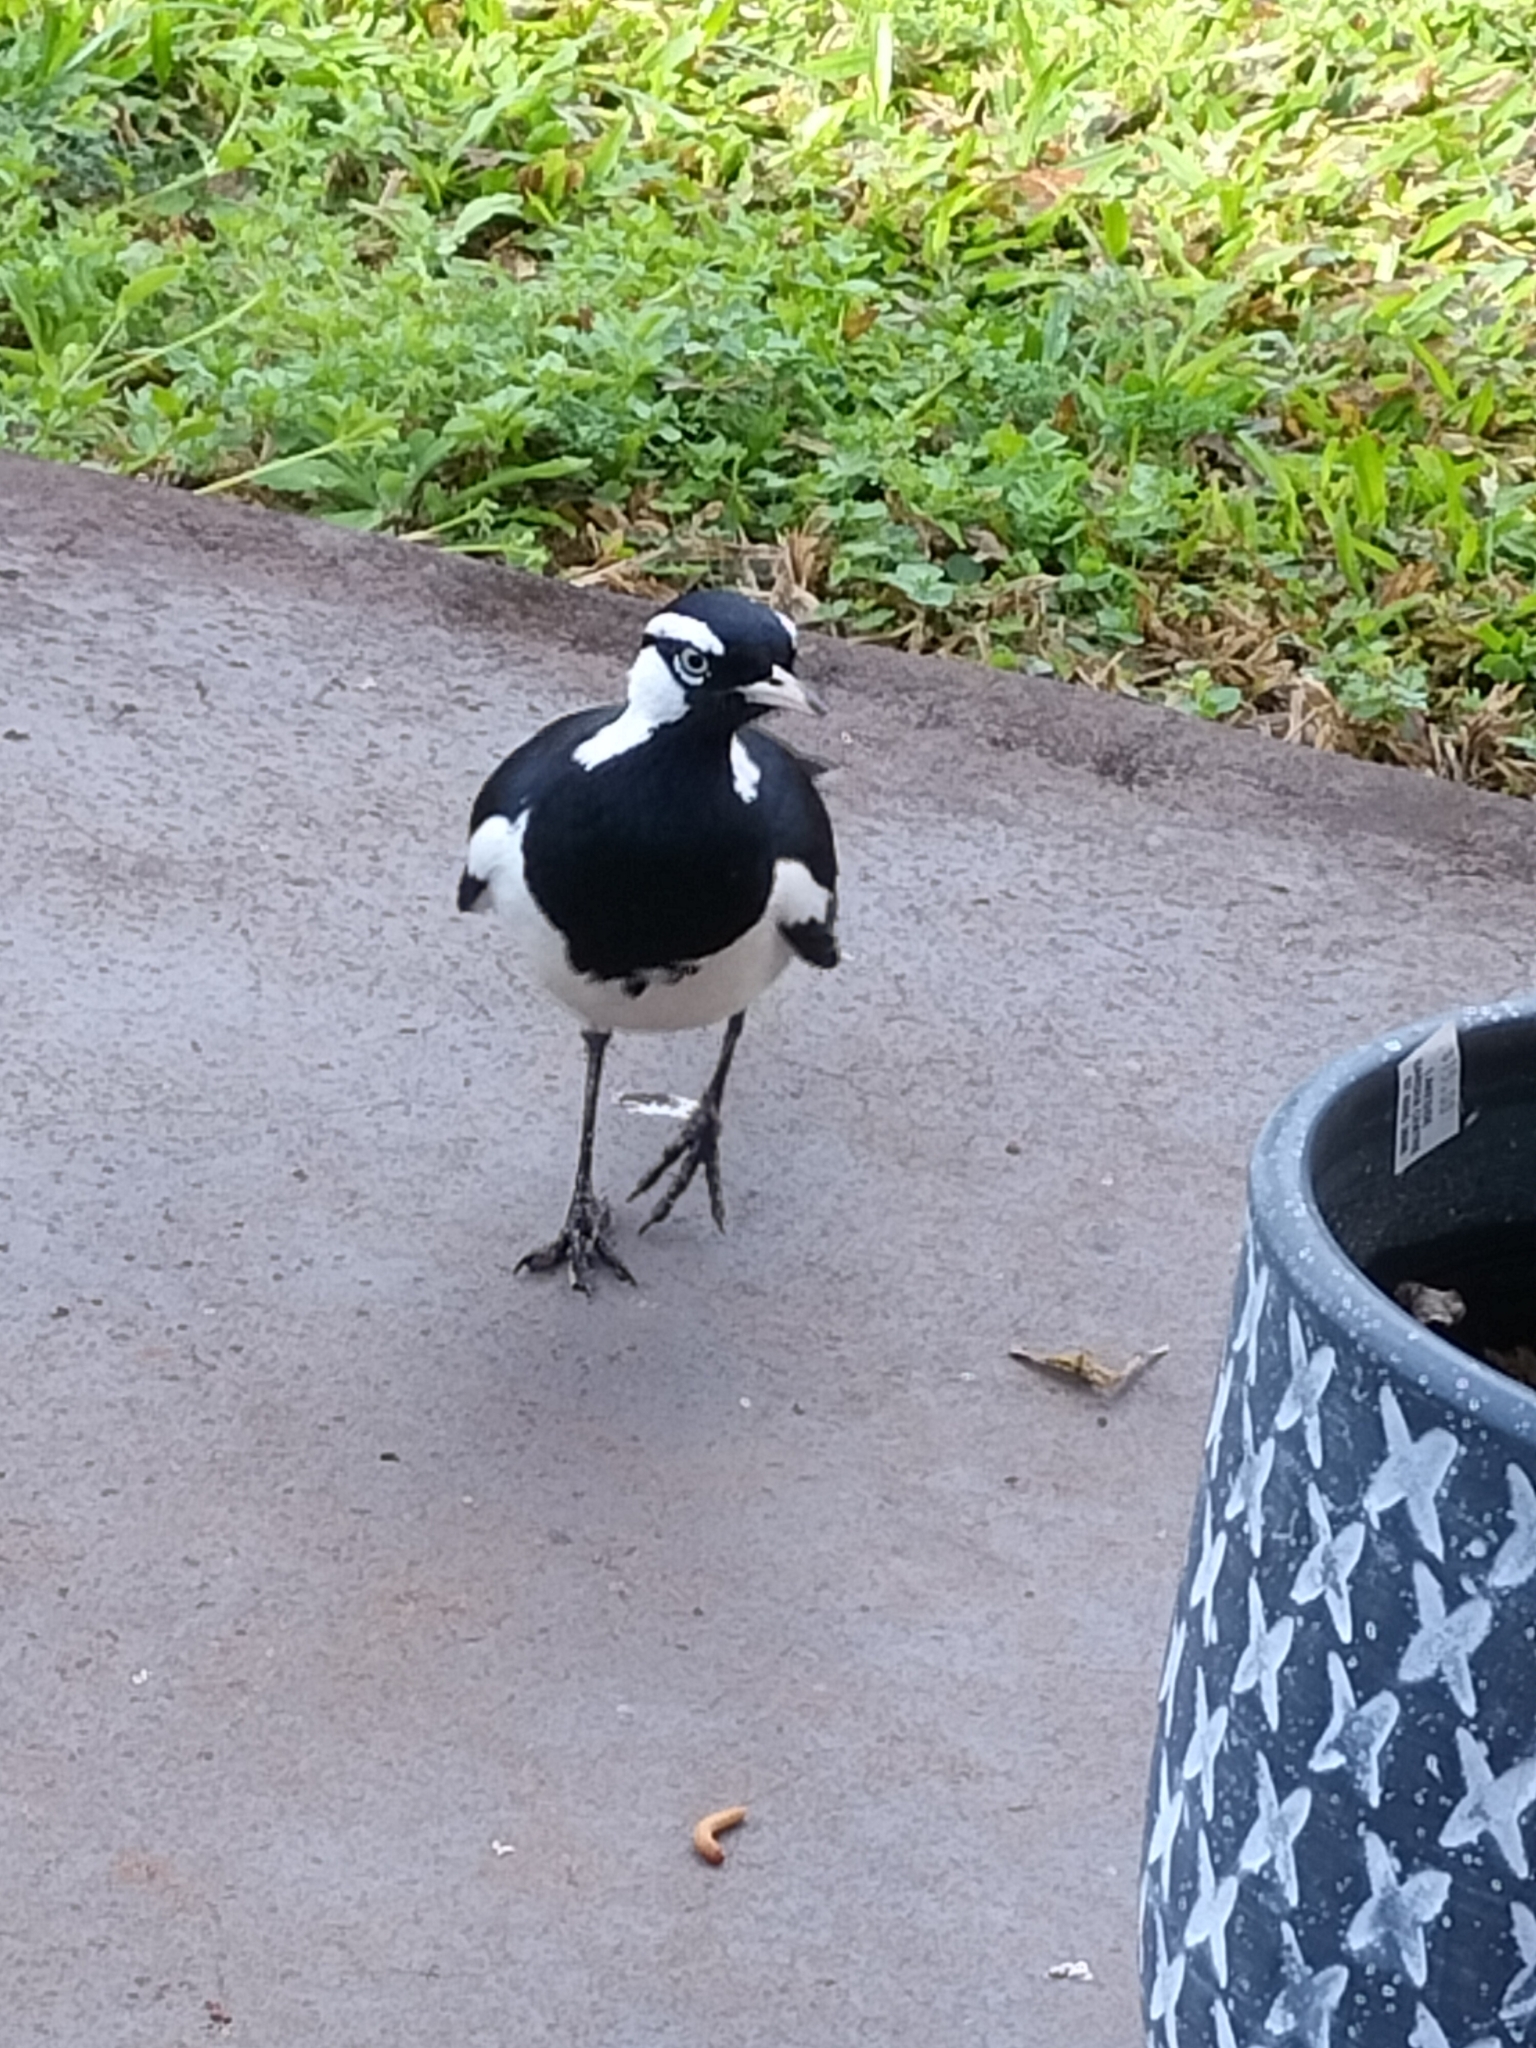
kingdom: Animalia
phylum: Chordata
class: Aves
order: Passeriformes
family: Monarchidae
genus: Grallina
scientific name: Grallina cyanoleuca
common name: Magpie-lark
